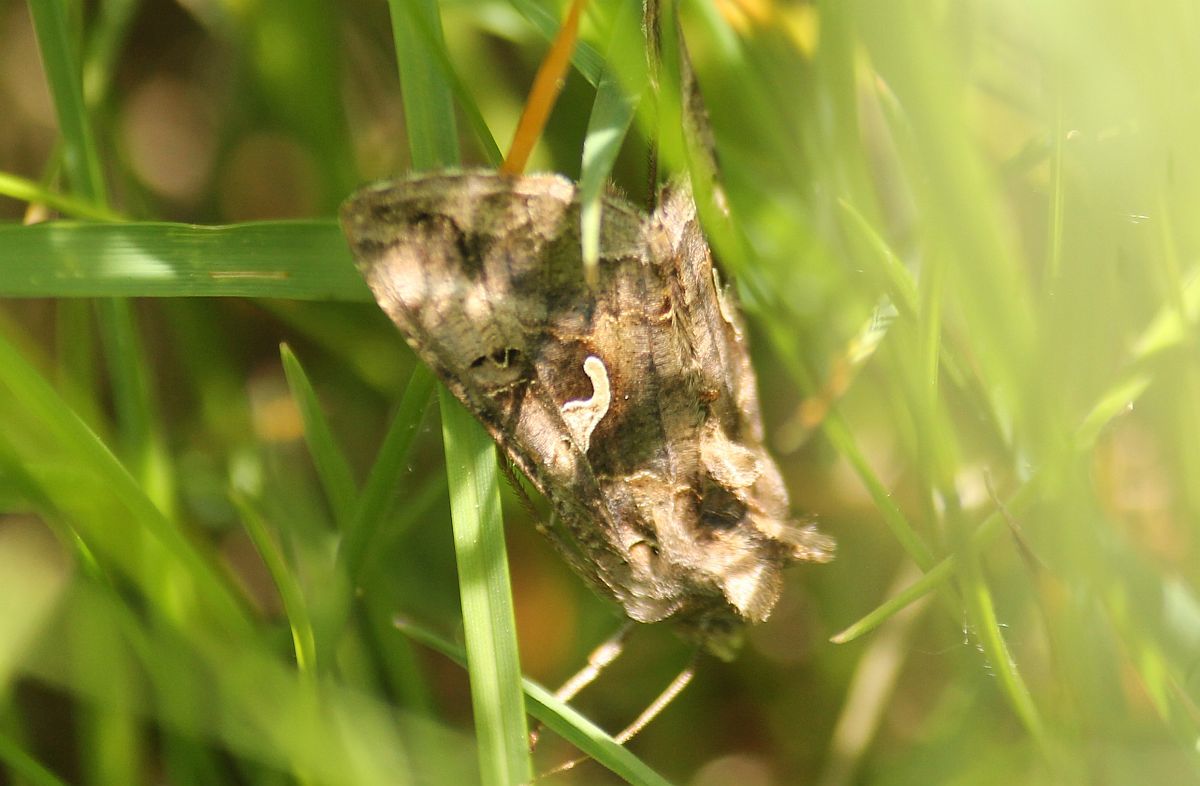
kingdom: Animalia
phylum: Arthropoda
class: Insecta
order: Lepidoptera
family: Noctuidae
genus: Autographa
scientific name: Autographa gamma
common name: Silver y
